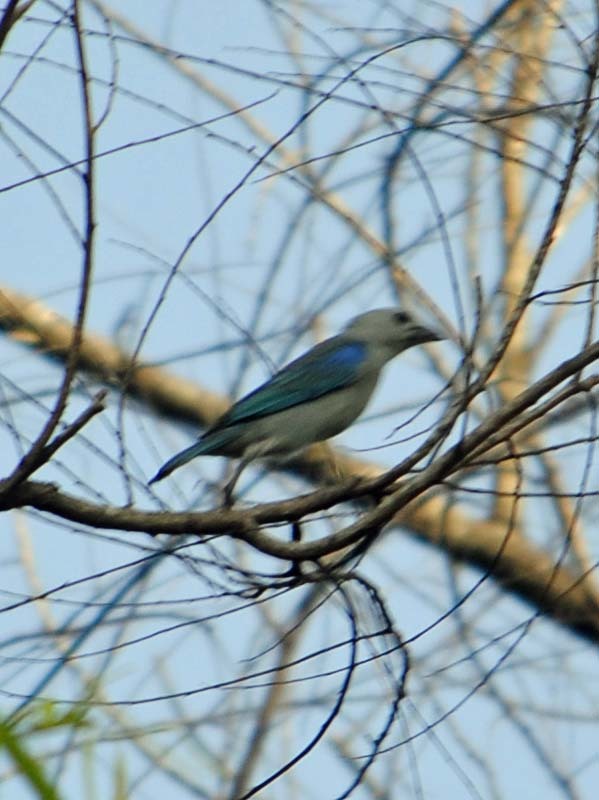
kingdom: Animalia
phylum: Chordata
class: Aves
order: Passeriformes
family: Thraupidae
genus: Thraupis
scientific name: Thraupis episcopus
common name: Blue-grey tanager
